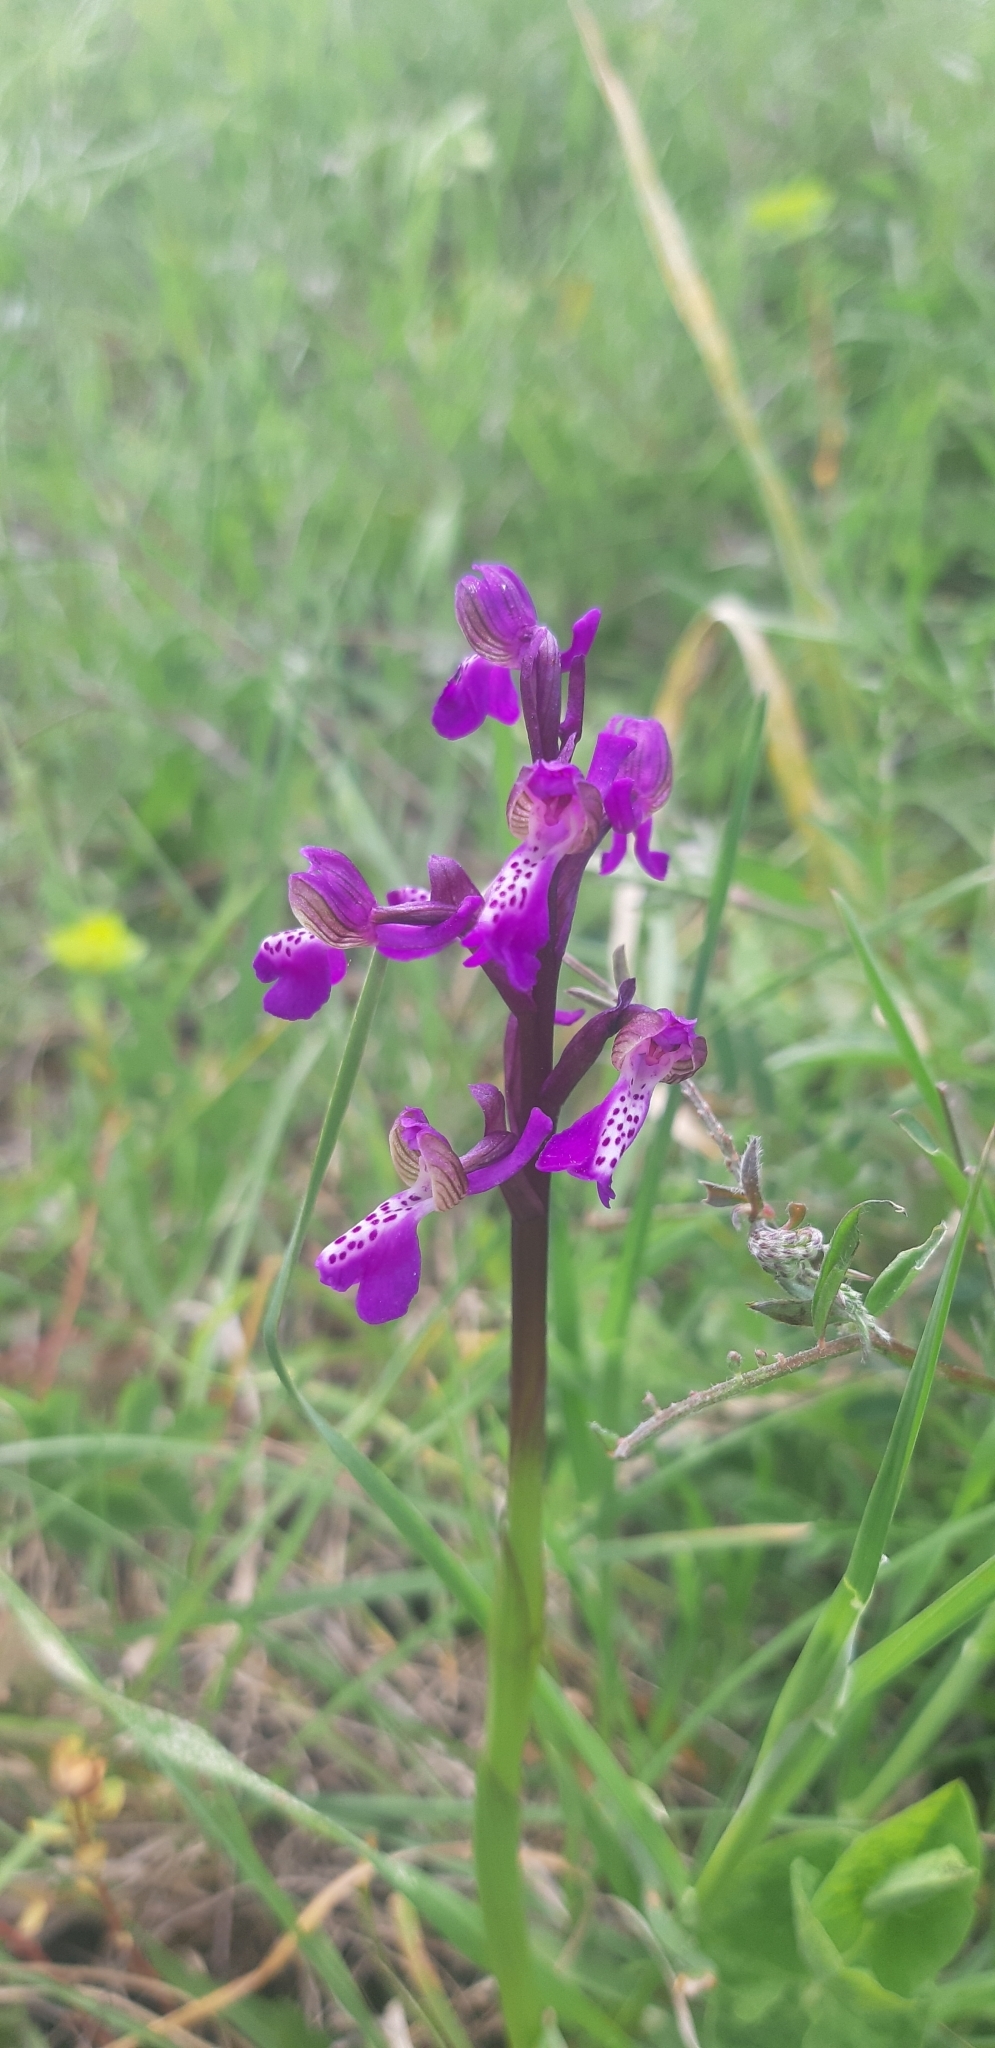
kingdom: Plantae
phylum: Tracheophyta
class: Liliopsida
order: Asparagales
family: Orchidaceae
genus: Anacamptis
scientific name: Anacamptis morio
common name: Green-winged orchid
